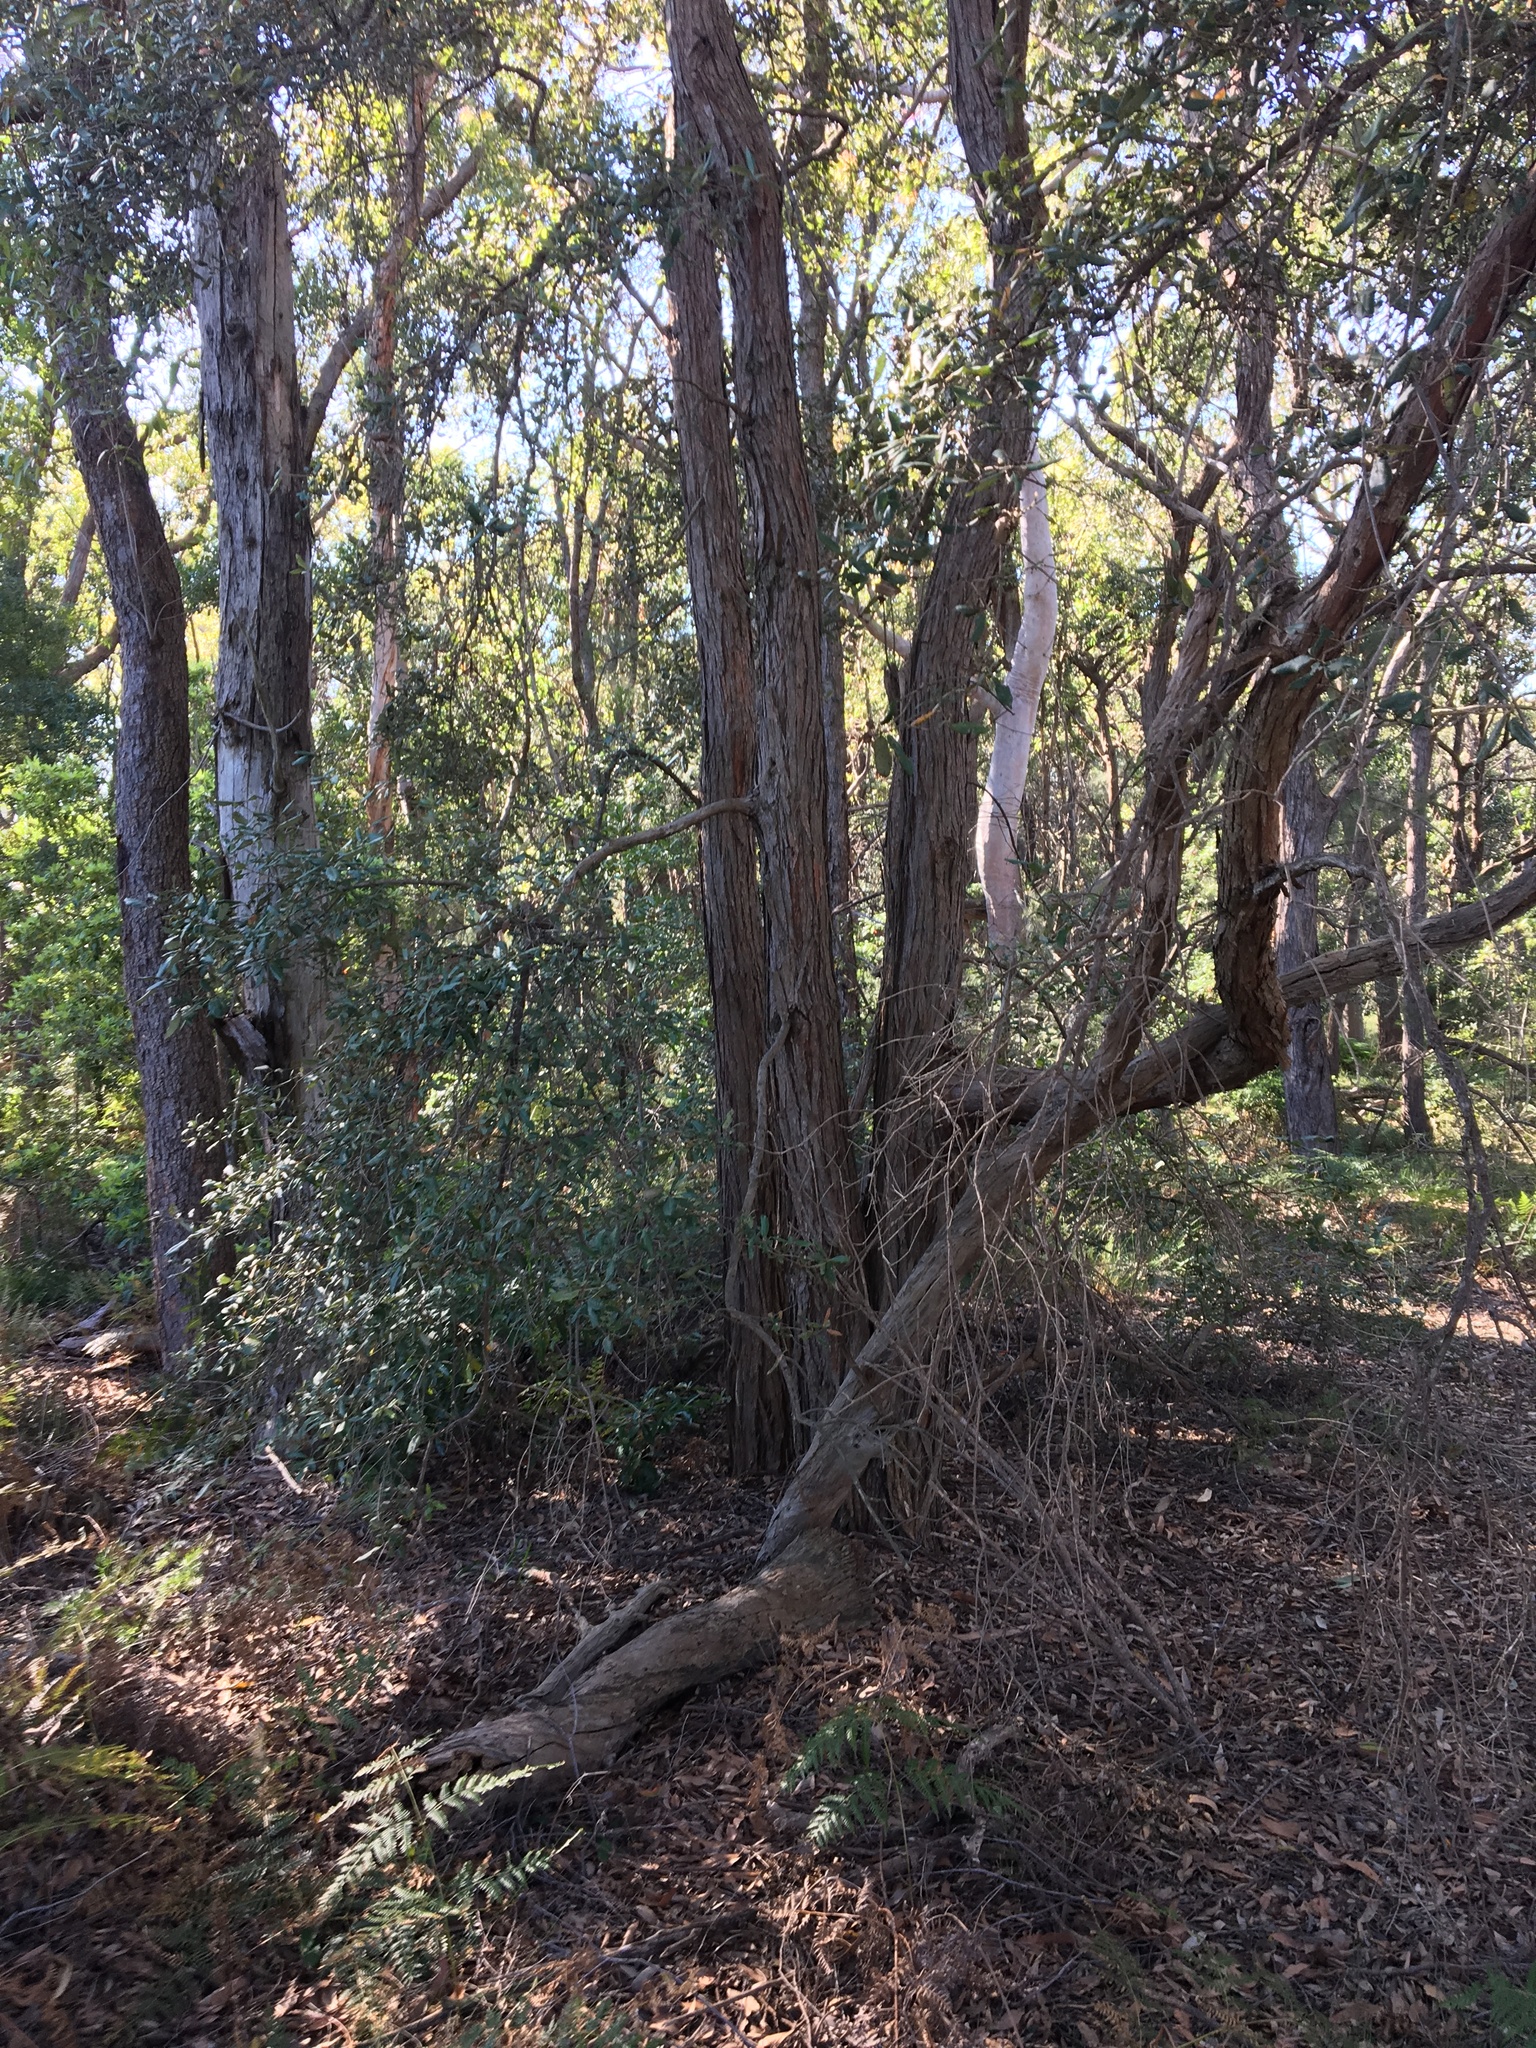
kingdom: Plantae
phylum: Tracheophyta
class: Magnoliopsida
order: Myrtales
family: Myrtaceae
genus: Syncarpia
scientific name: Syncarpia glomulifera
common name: Turpentine tree
